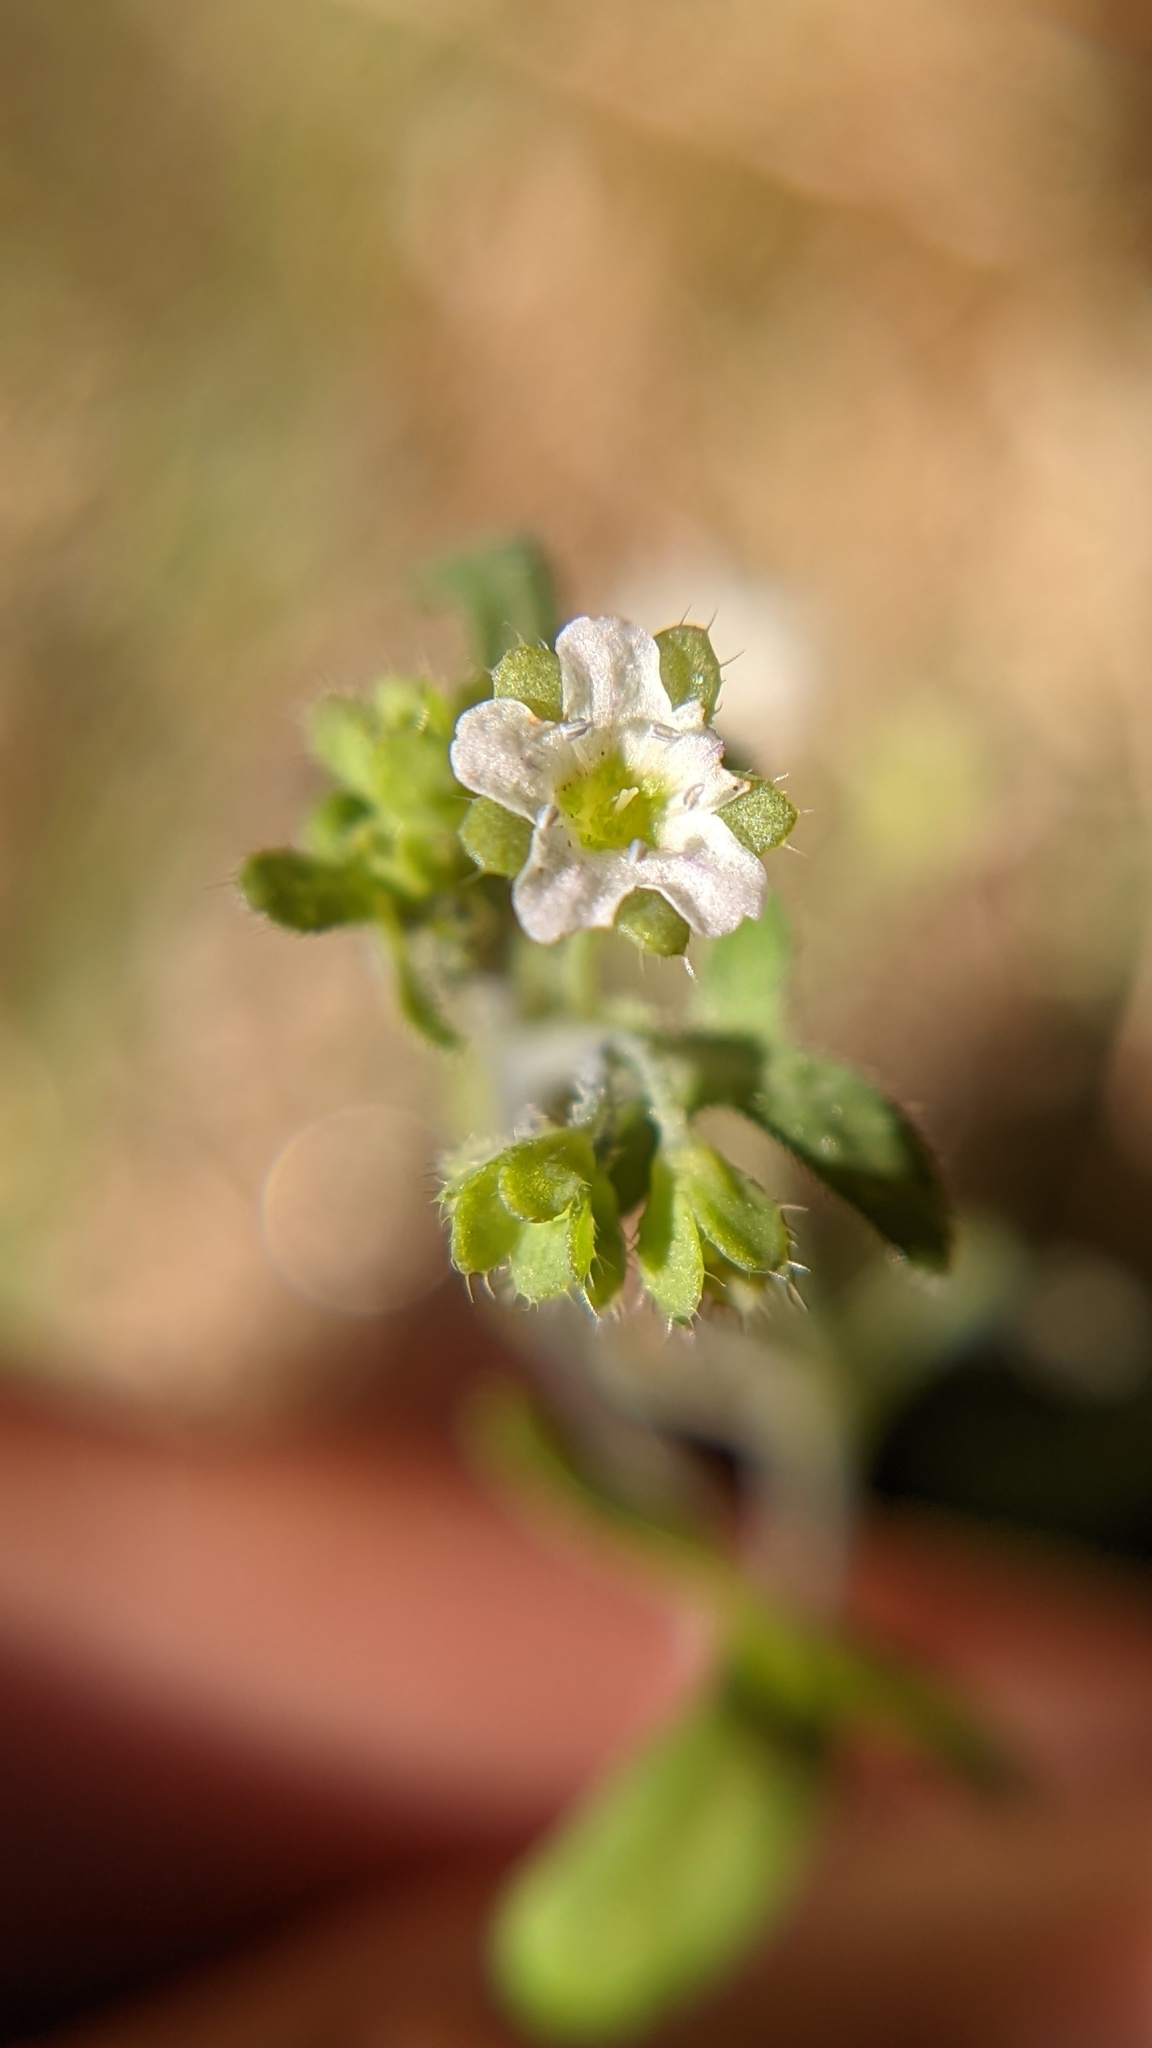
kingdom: Plantae
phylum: Tracheophyta
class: Magnoliopsida
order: Boraginales
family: Hydrophyllaceae
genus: Pholistoma
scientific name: Pholistoma membranaceum
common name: White fiesta-flower
